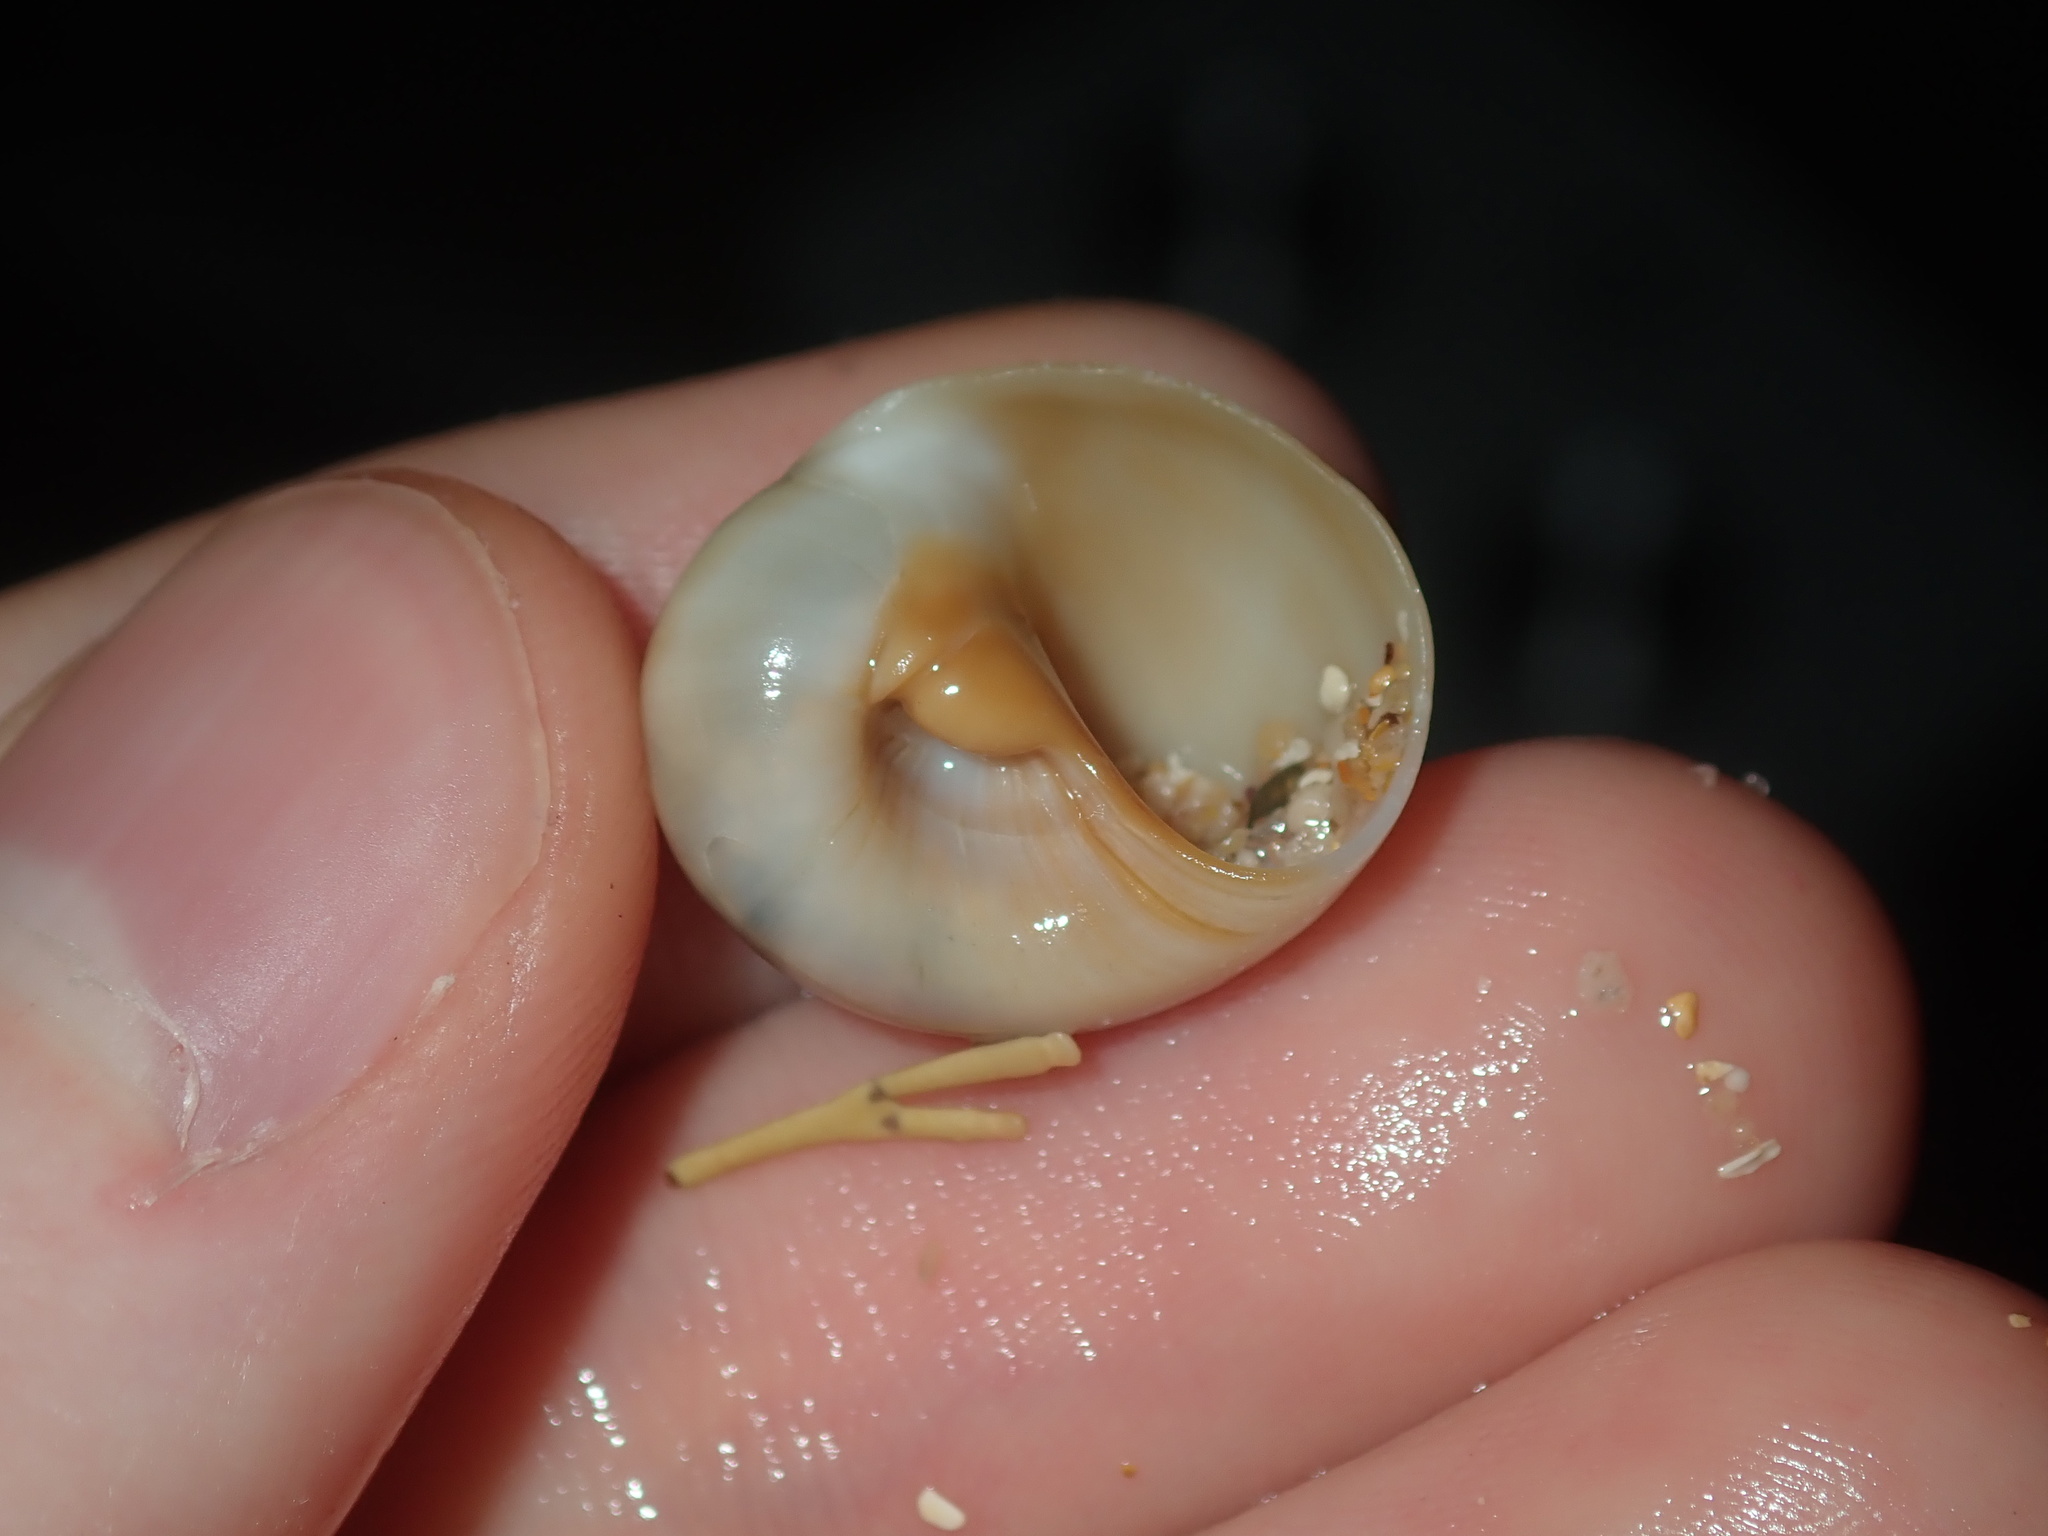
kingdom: Animalia
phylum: Mollusca
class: Gastropoda
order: Littorinimorpha
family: Naticidae
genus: Neverita
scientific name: Neverita didyma
